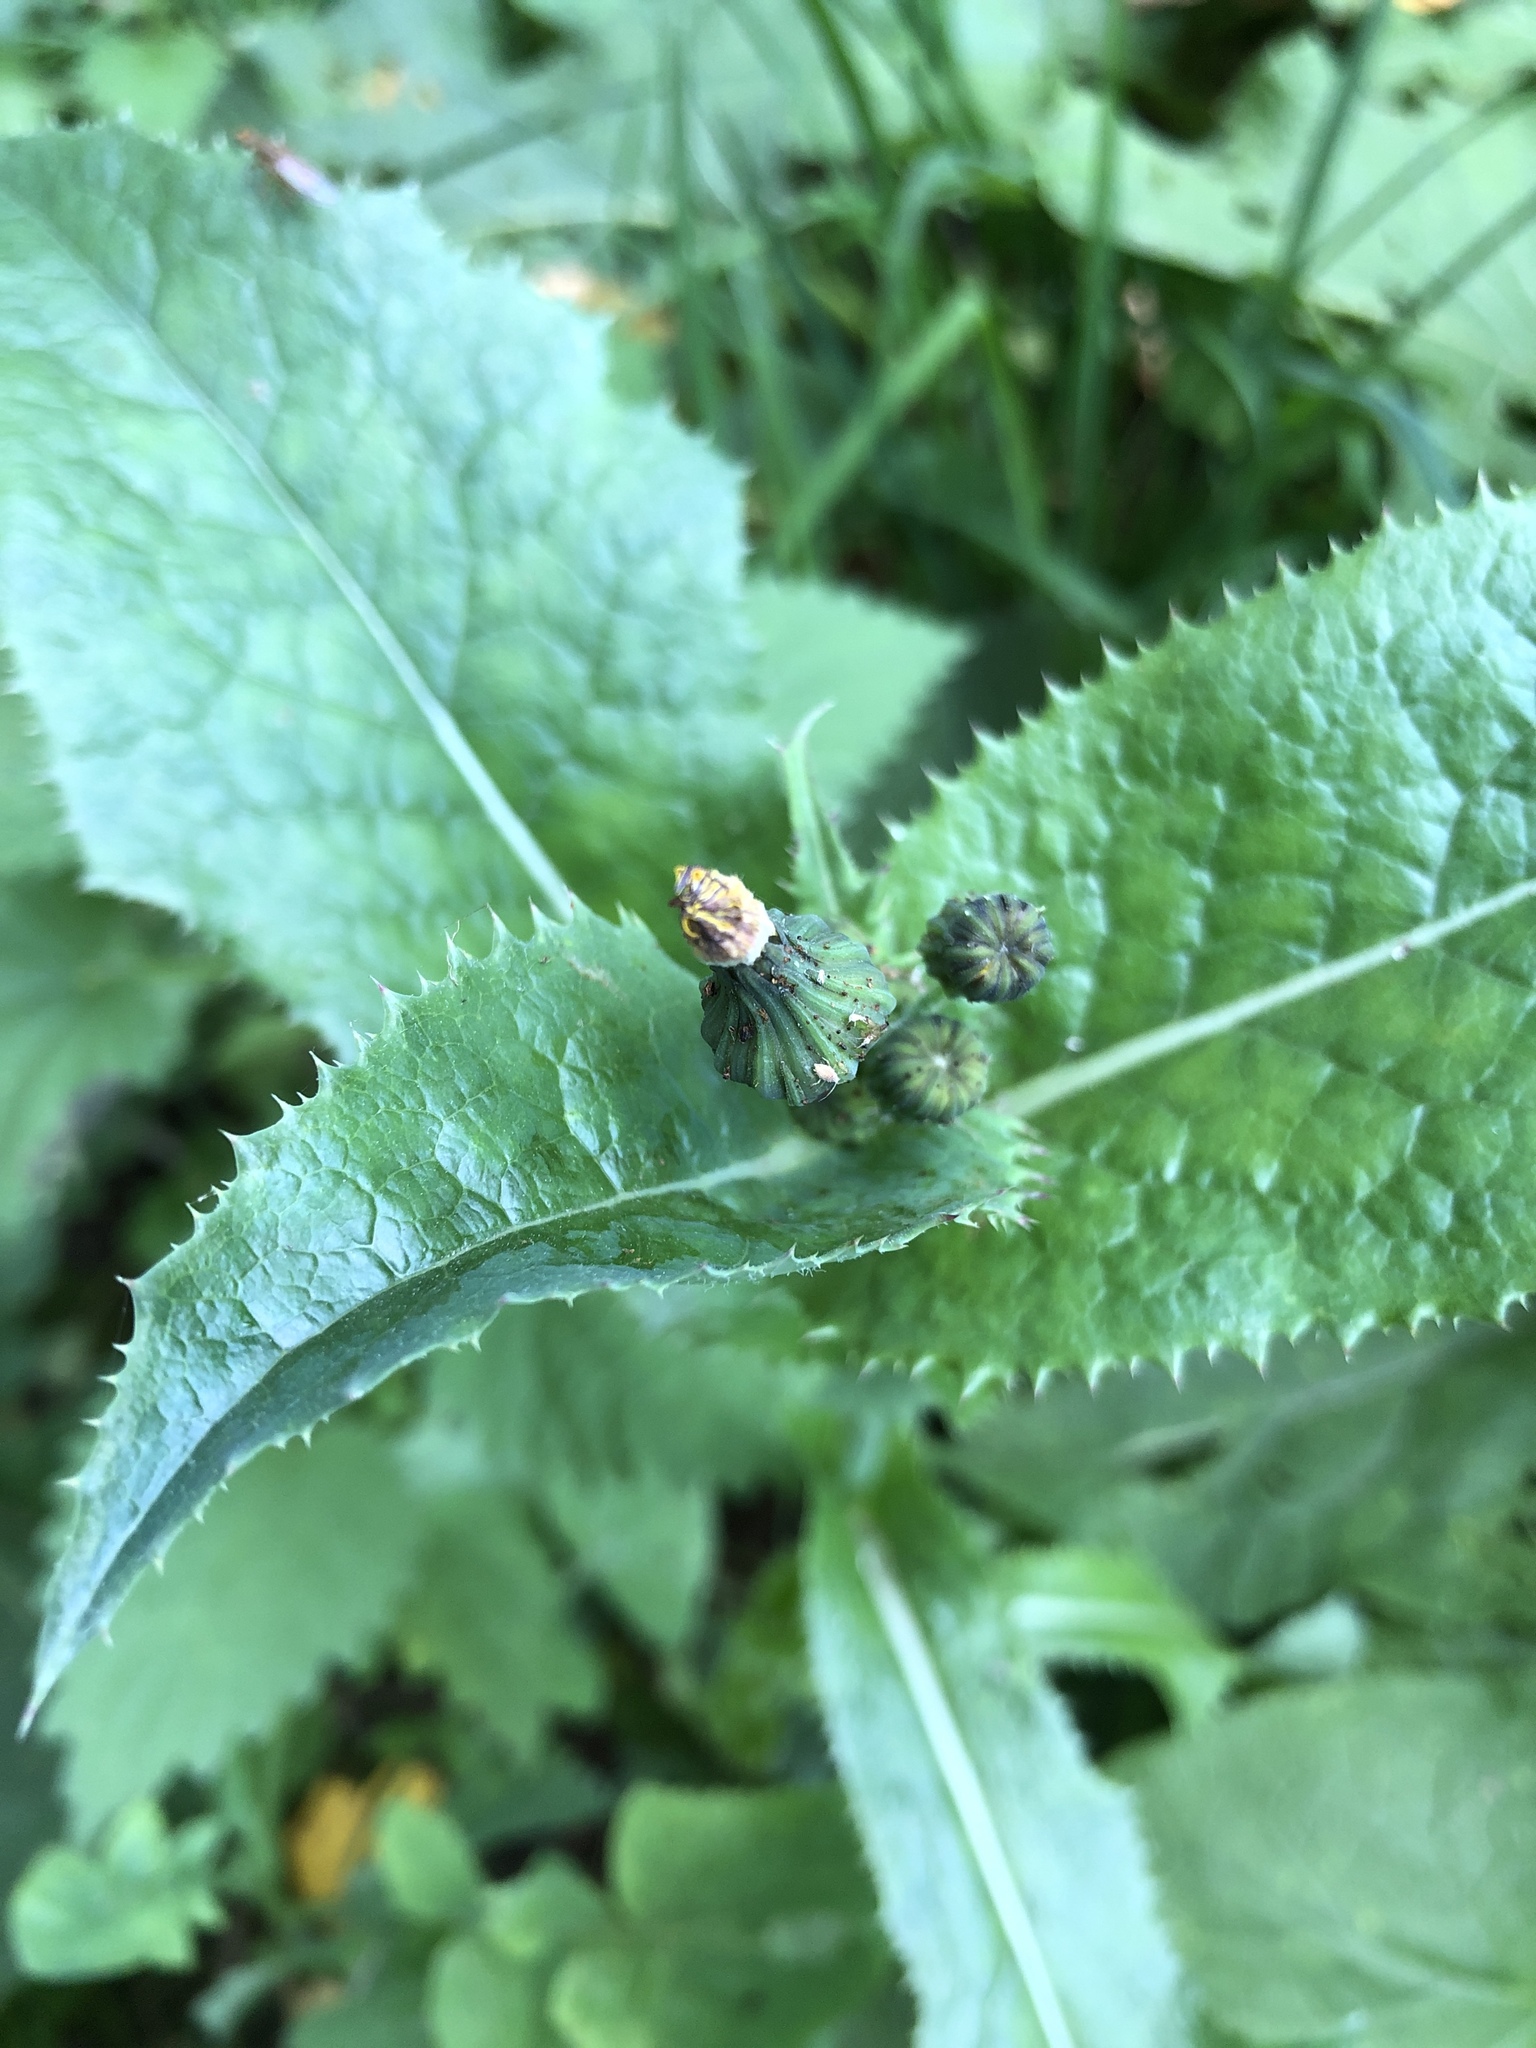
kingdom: Plantae
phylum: Tracheophyta
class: Magnoliopsida
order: Asterales
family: Asteraceae
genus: Sonchus
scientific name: Sonchus asper
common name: Prickly sow-thistle
